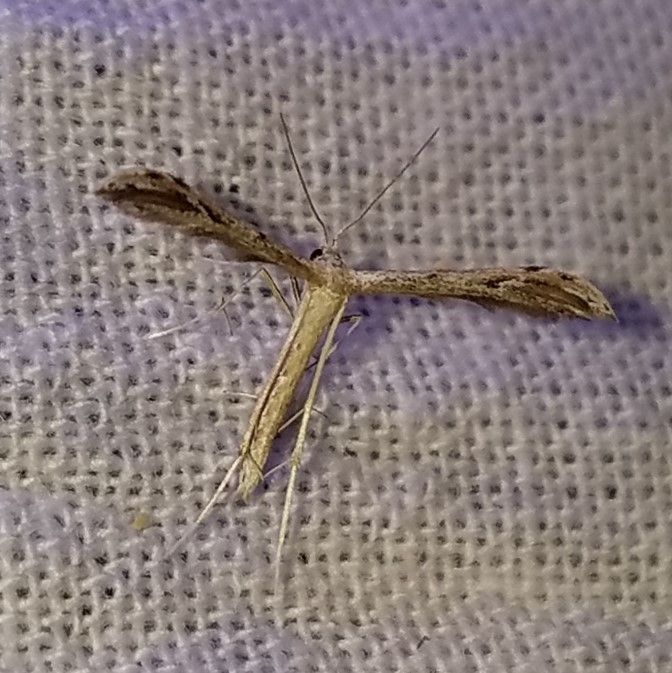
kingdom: Animalia
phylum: Arthropoda
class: Insecta
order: Lepidoptera
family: Pterophoridae
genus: Pselnophorus
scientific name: Pselnophorus belfragei
